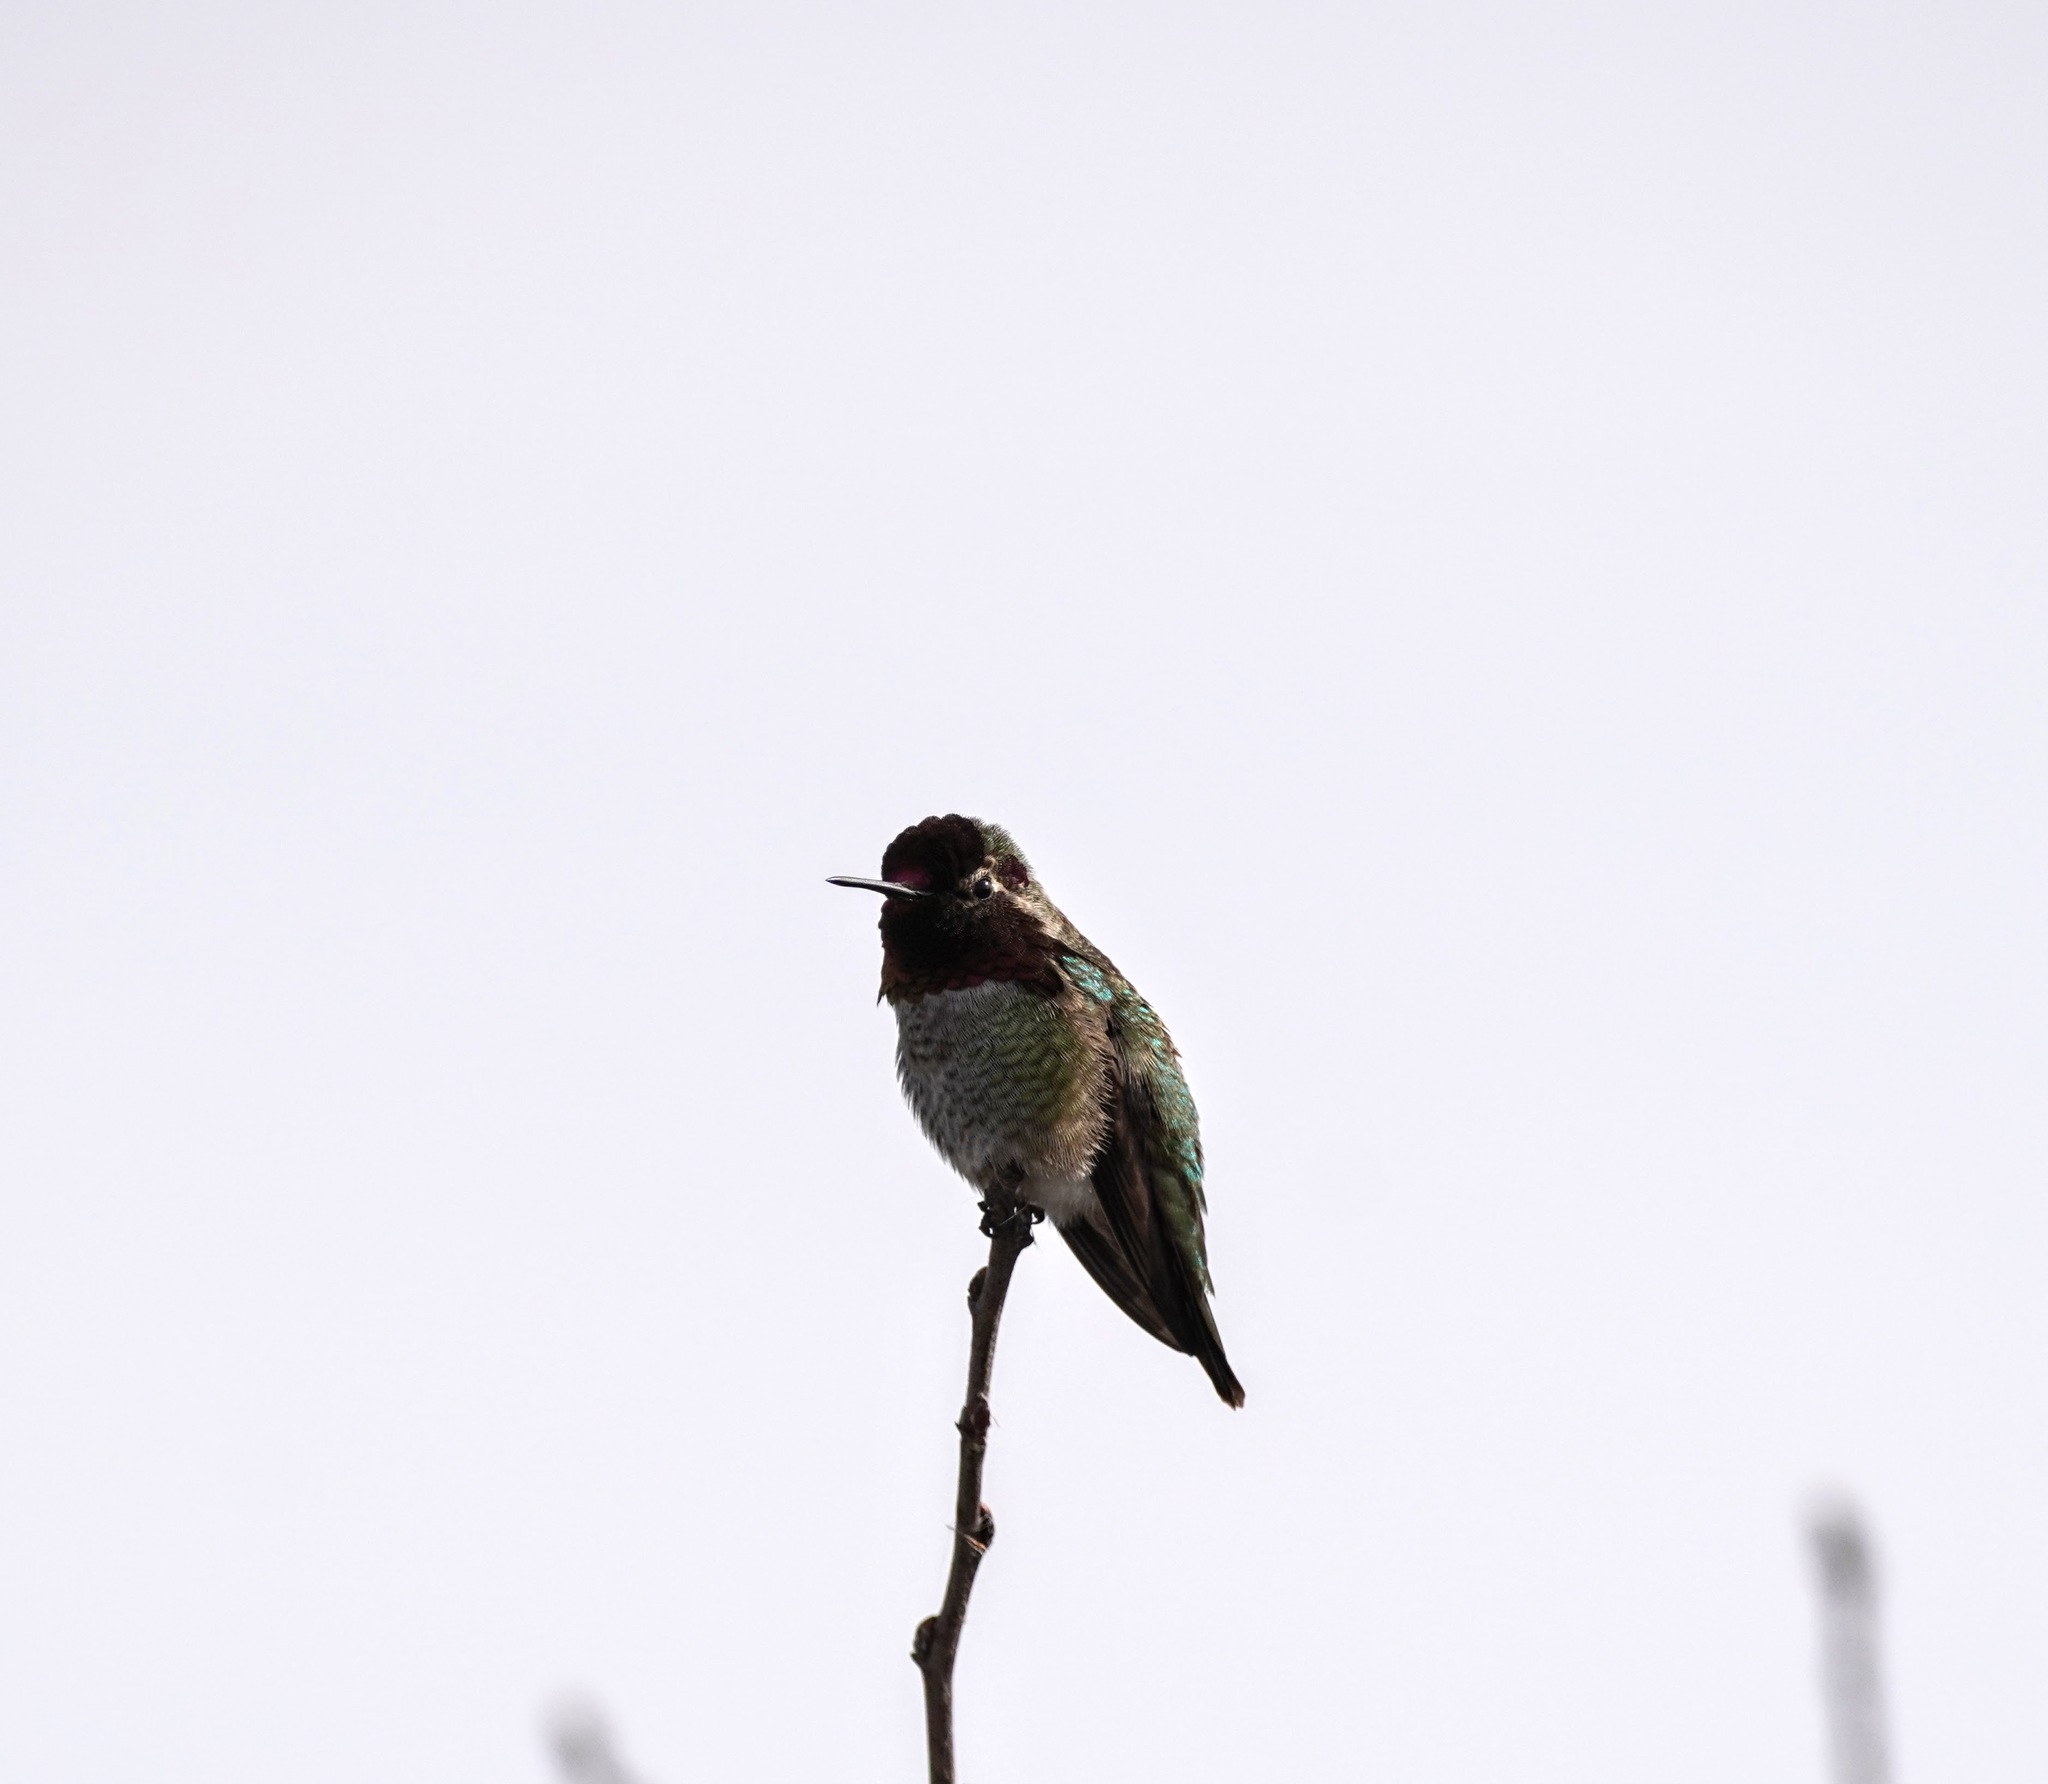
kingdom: Animalia
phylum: Chordata
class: Aves
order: Apodiformes
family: Trochilidae
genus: Calypte
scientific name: Calypte anna
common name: Anna's hummingbird
